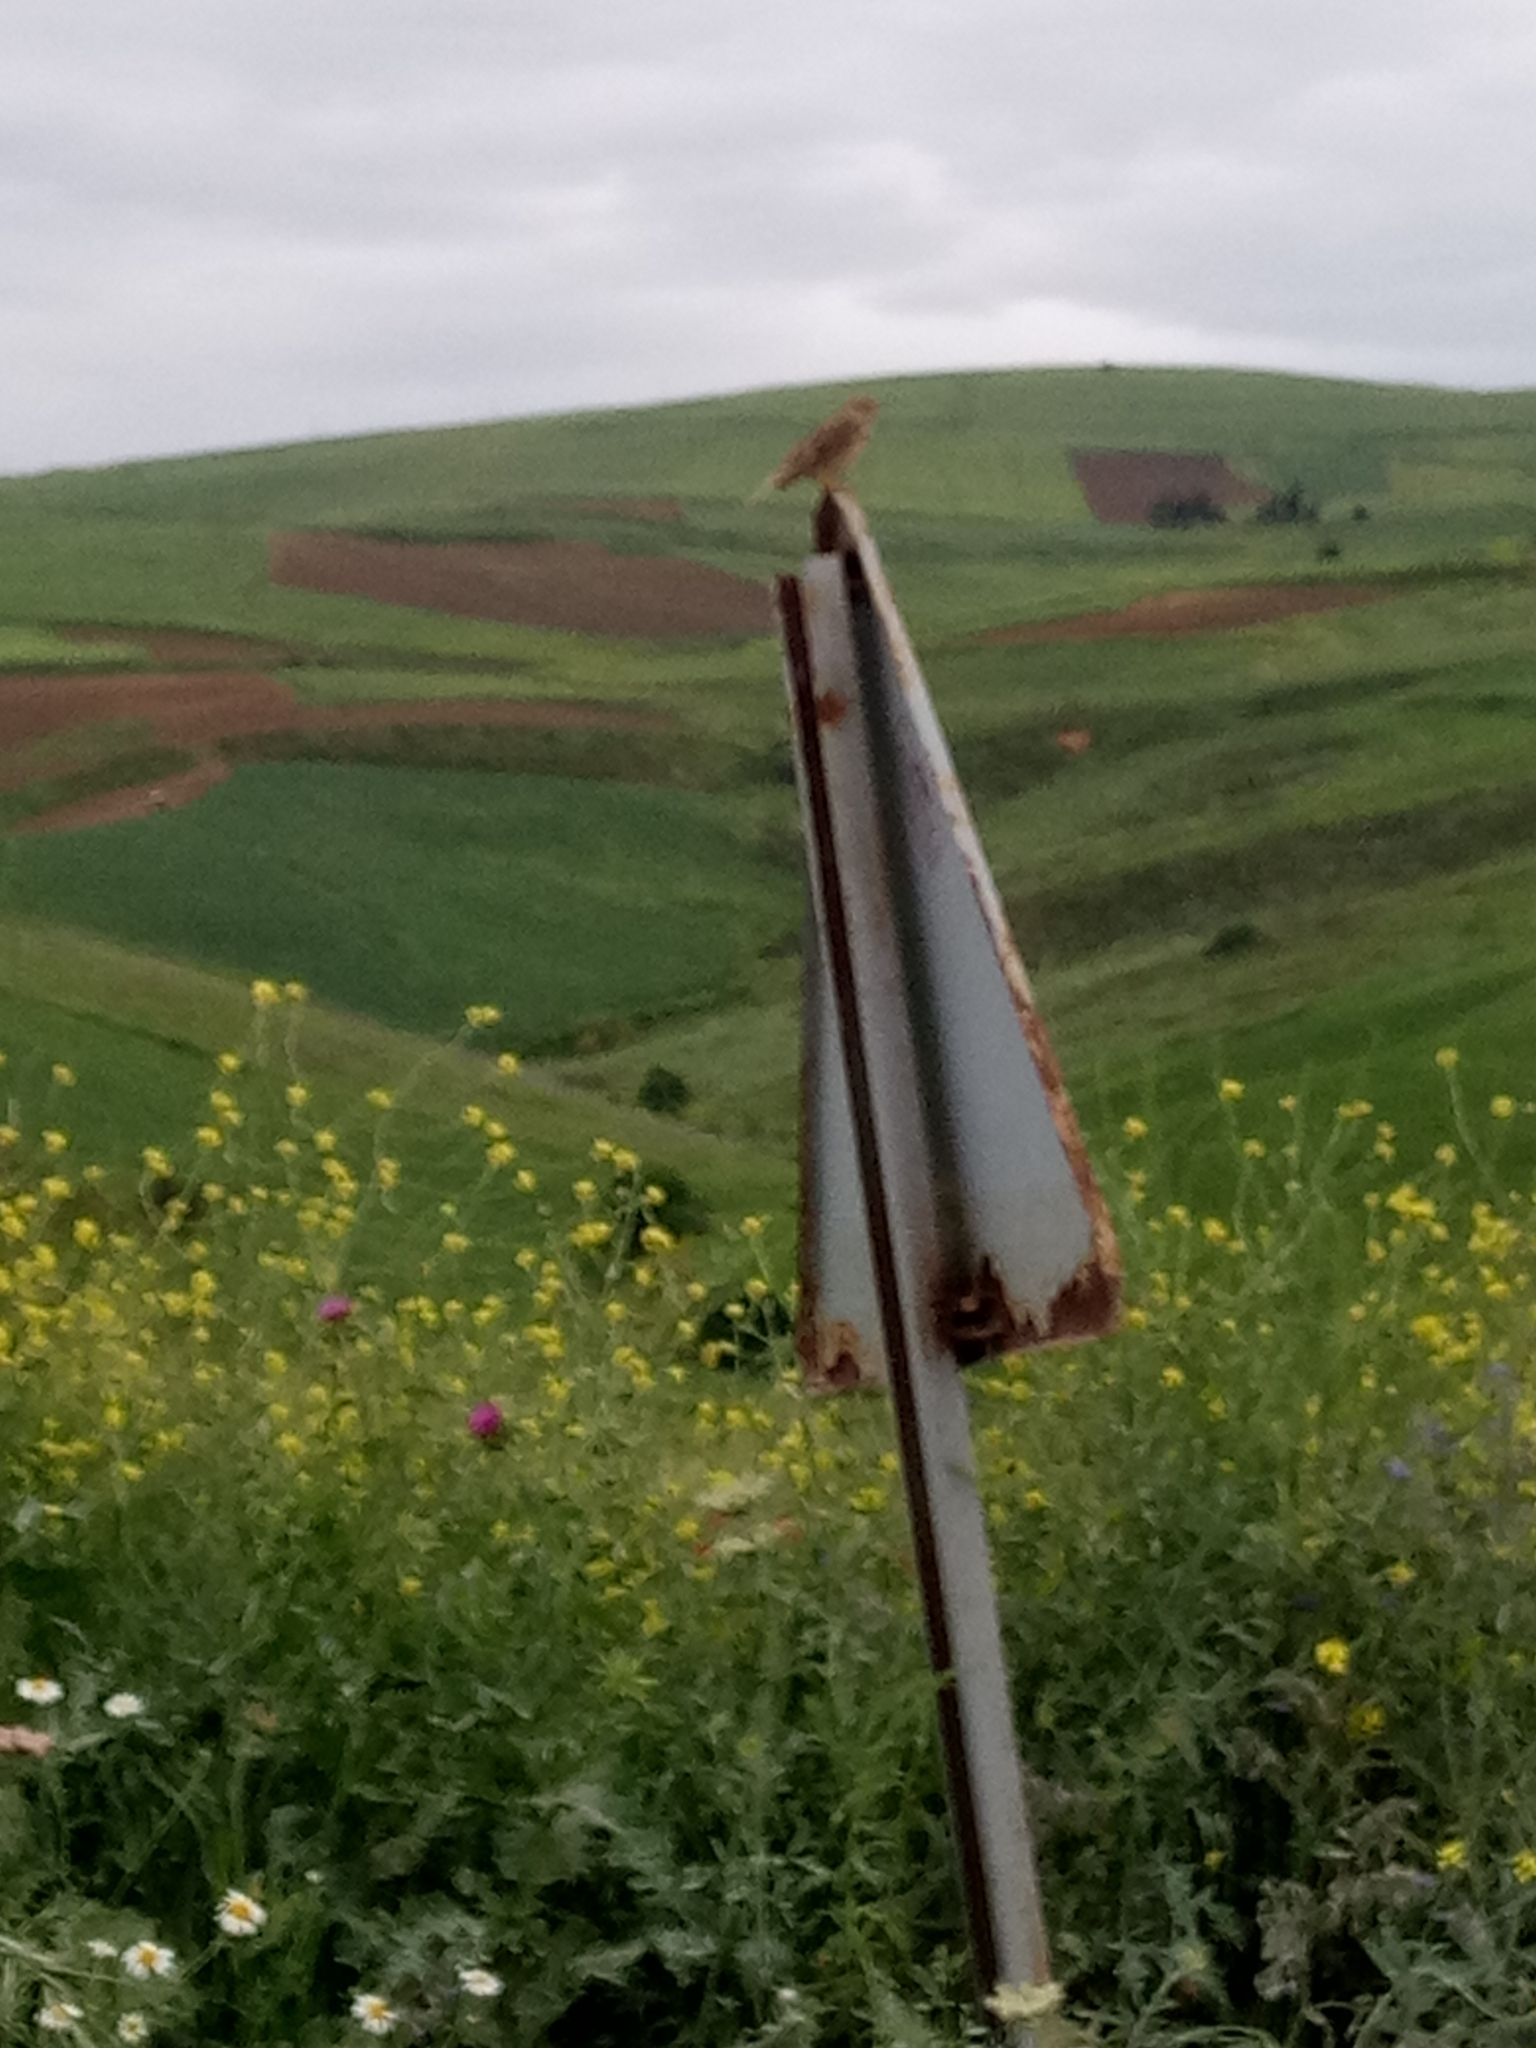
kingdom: Animalia
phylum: Chordata
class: Aves
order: Passeriformes
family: Alaudidae
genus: Alauda
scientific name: Alauda arvensis
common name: Eurasian skylark
